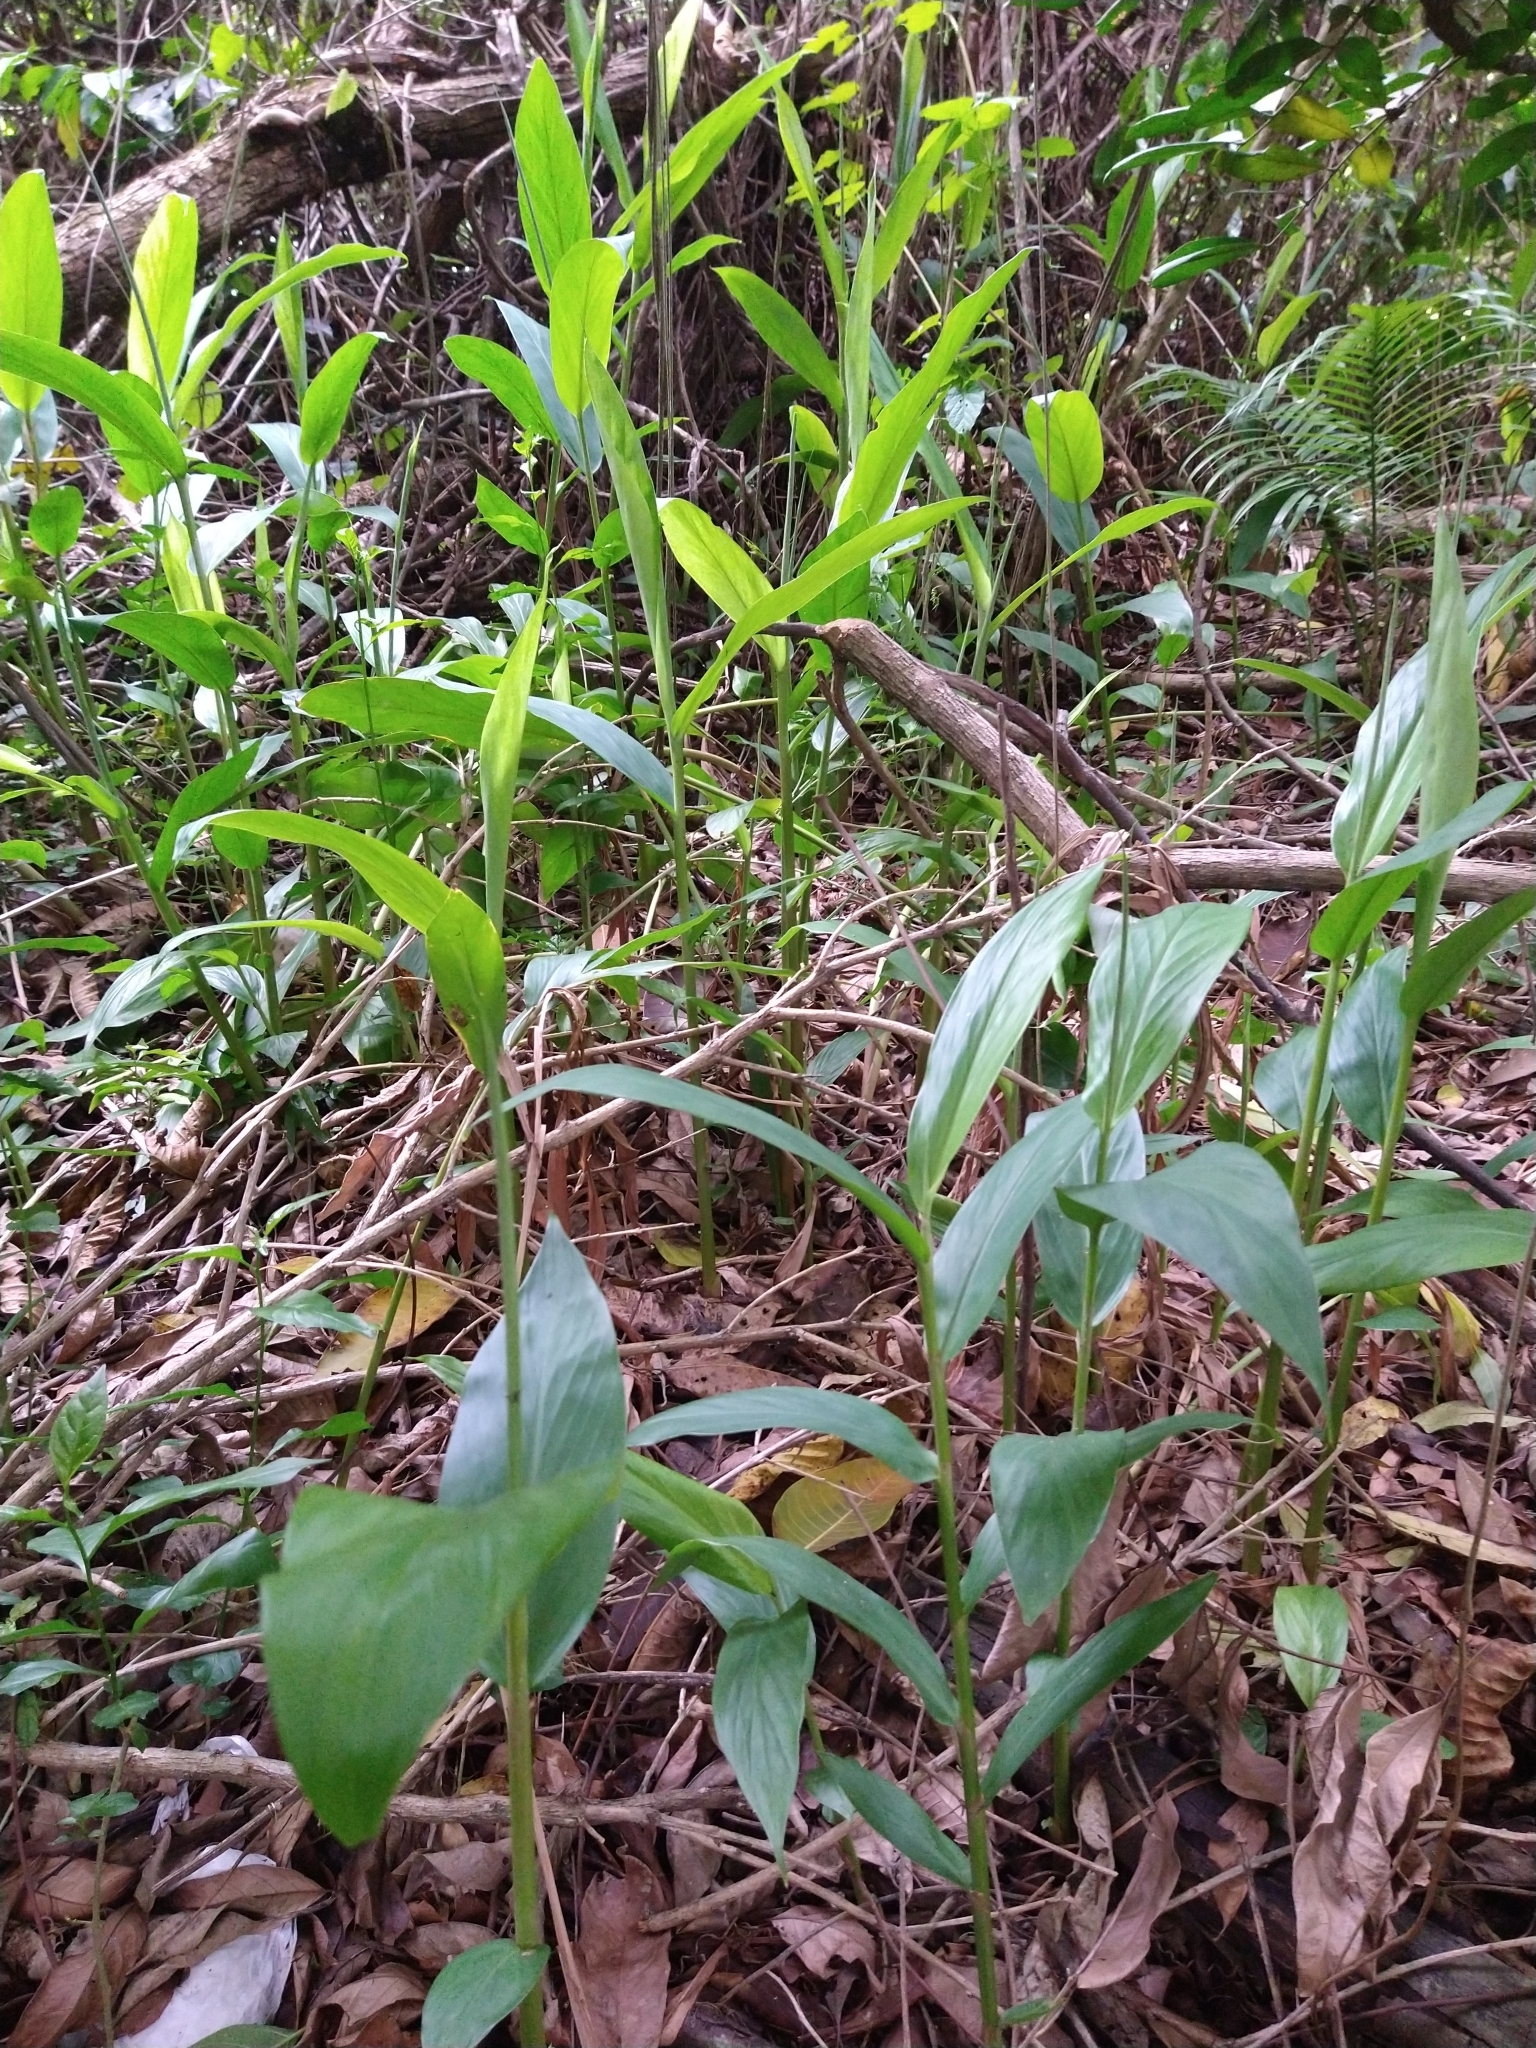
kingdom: Plantae
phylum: Tracheophyta
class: Liliopsida
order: Zingiberales
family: Zingiberaceae
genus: Hedychium
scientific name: Hedychium coronarium
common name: White garland-lily
